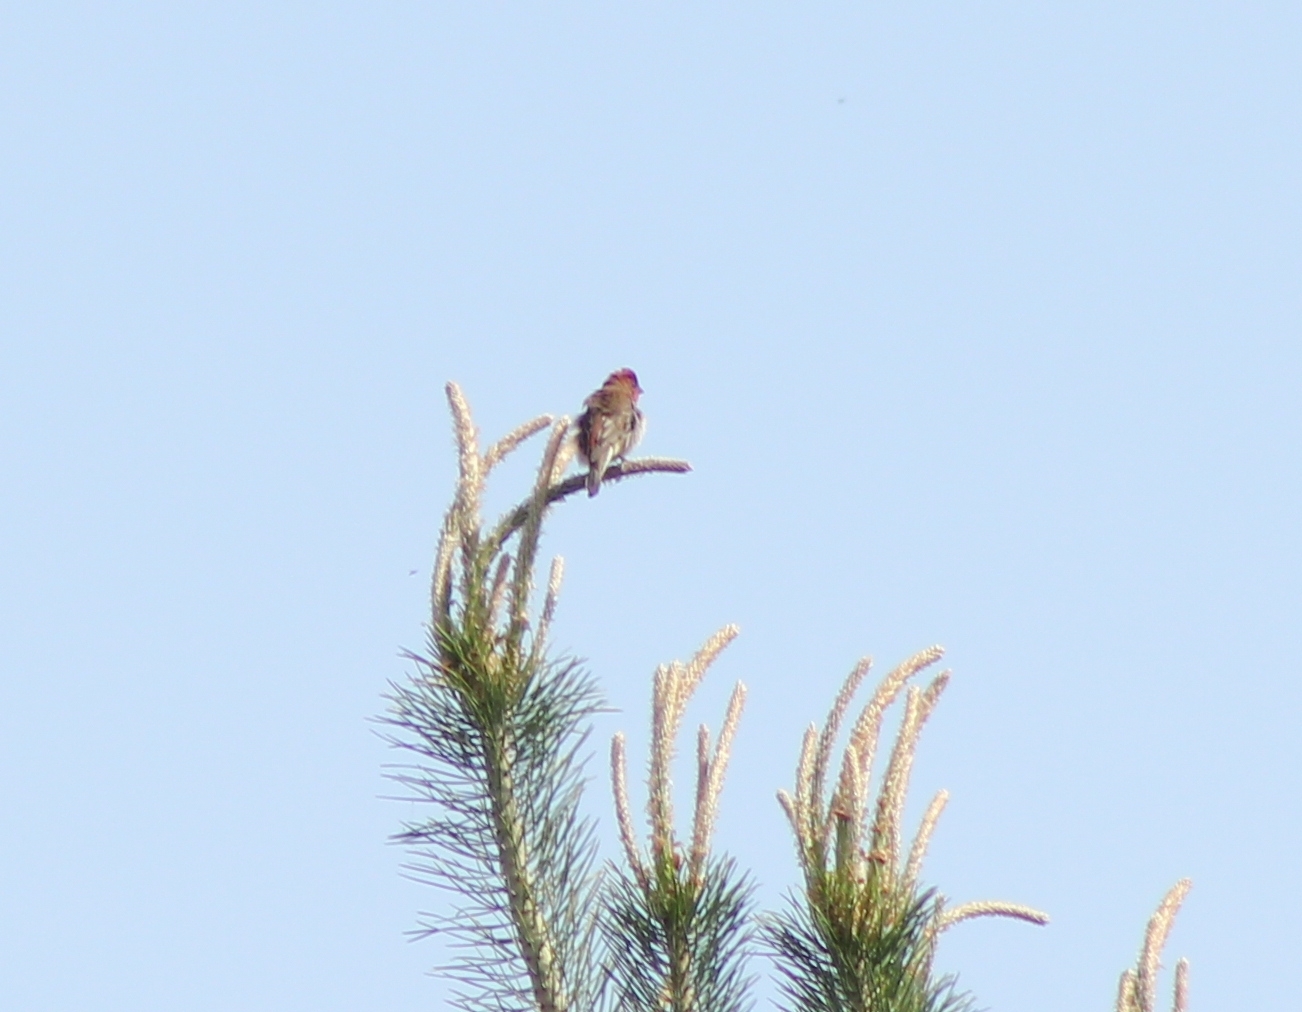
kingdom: Animalia
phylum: Chordata
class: Aves
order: Passeriformes
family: Fringillidae
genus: Carpodacus
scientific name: Carpodacus erythrinus
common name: Common rosefinch
